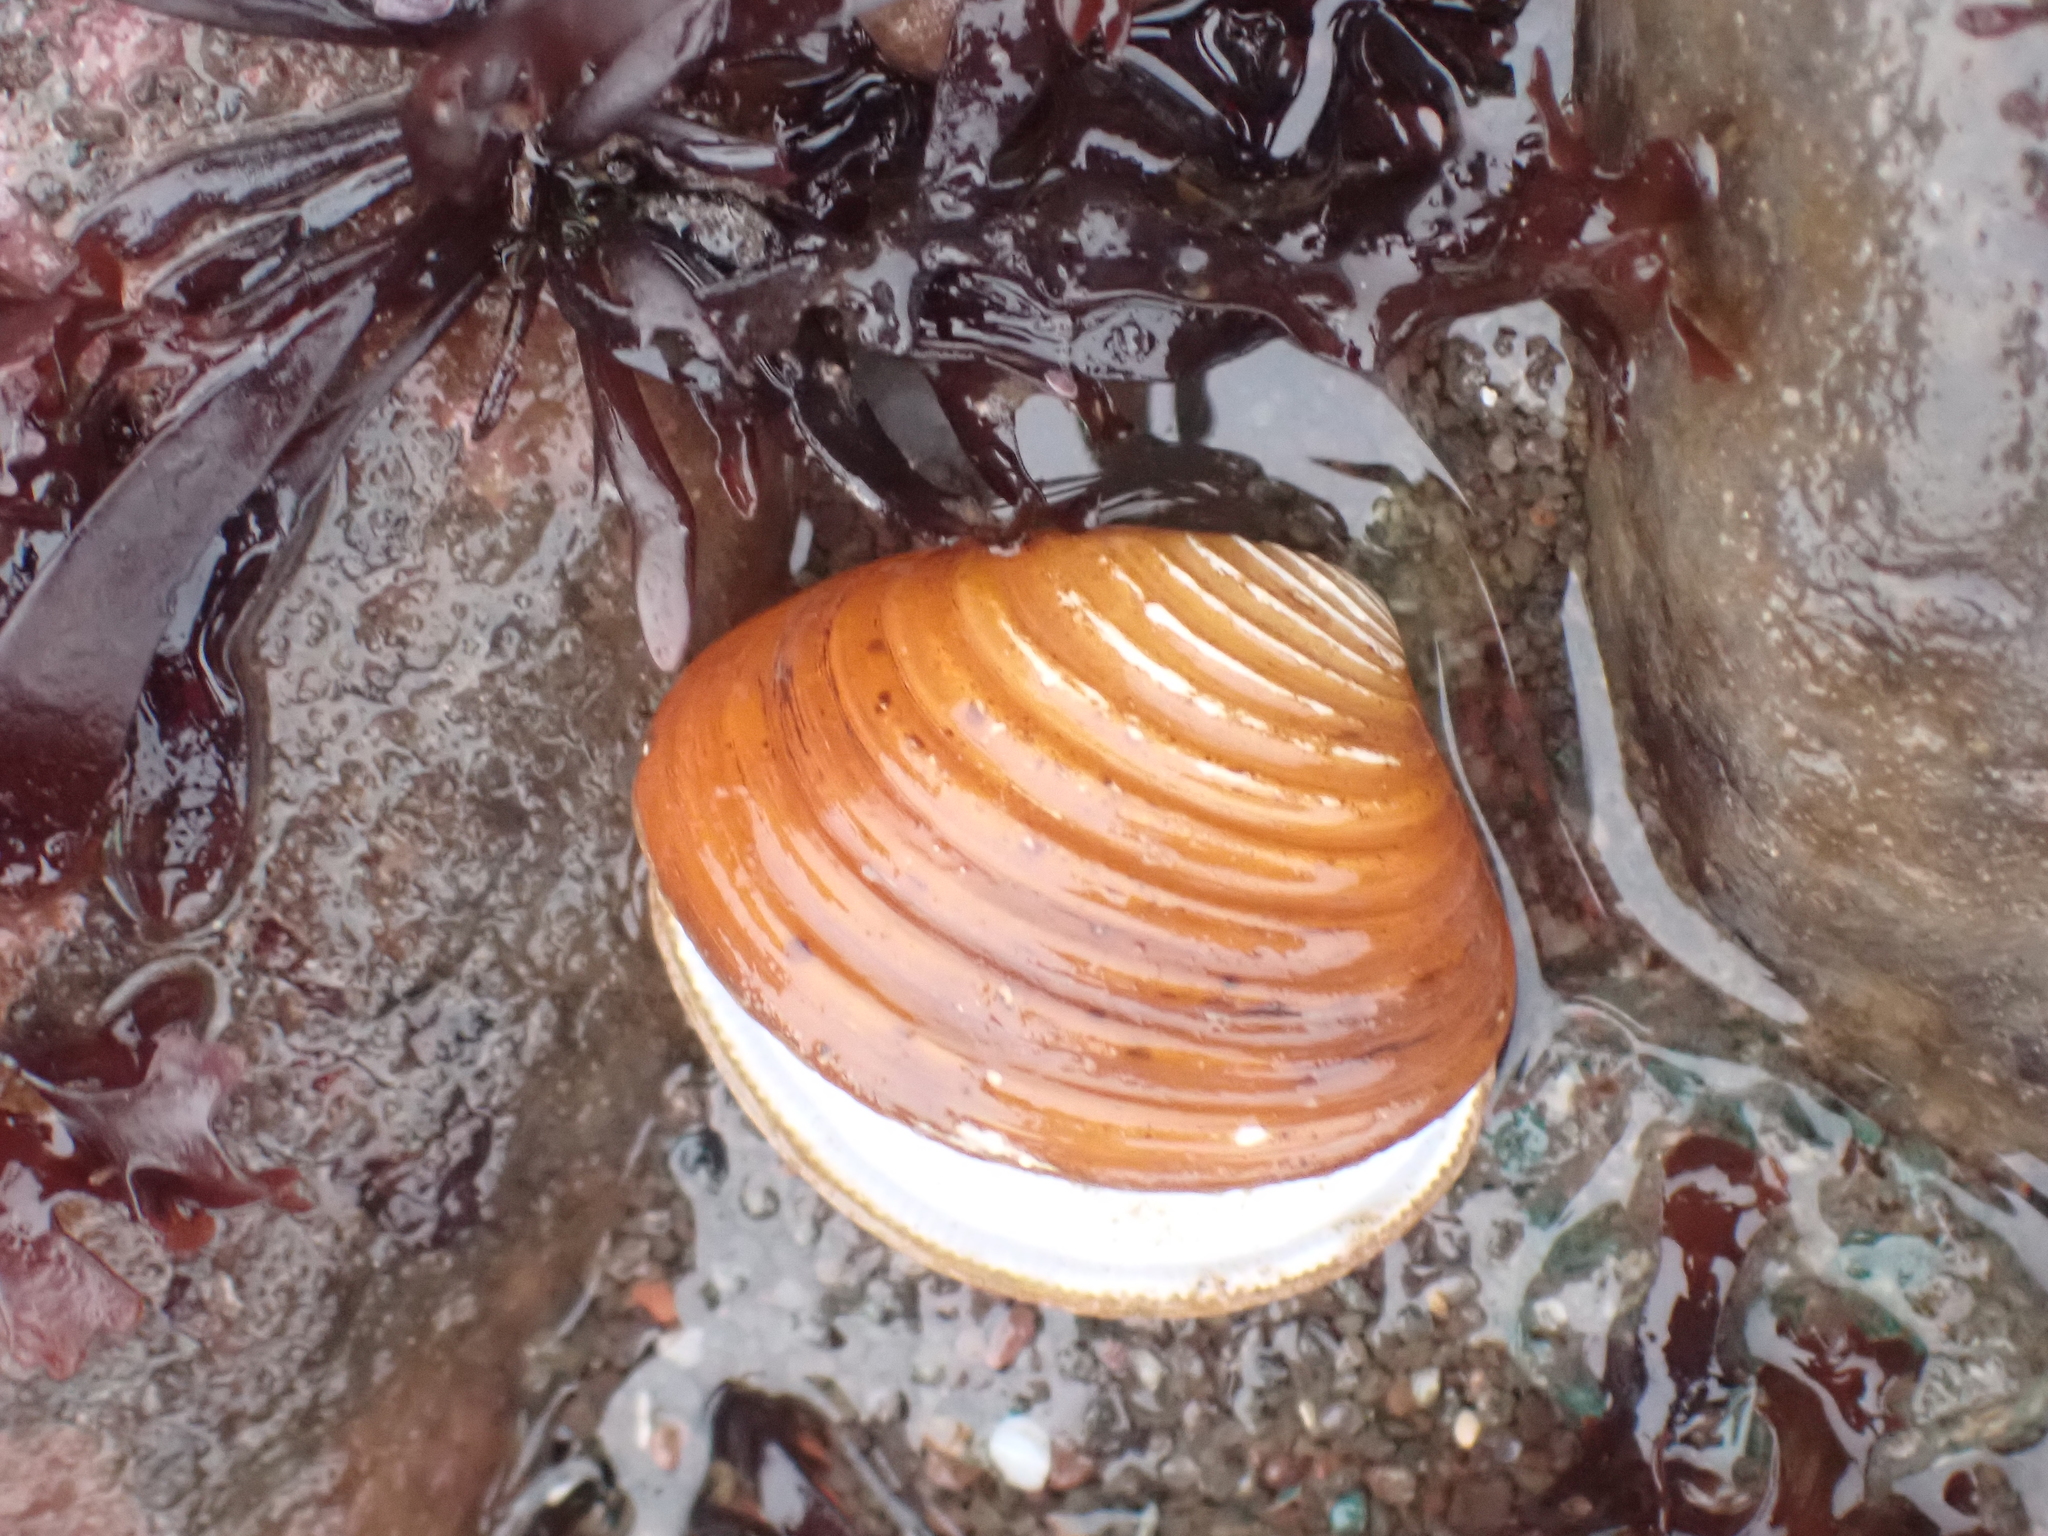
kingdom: Animalia
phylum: Mollusca
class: Bivalvia
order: Carditida
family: Astartidae
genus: Astarte
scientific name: Astarte undata
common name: Wavy astarte
